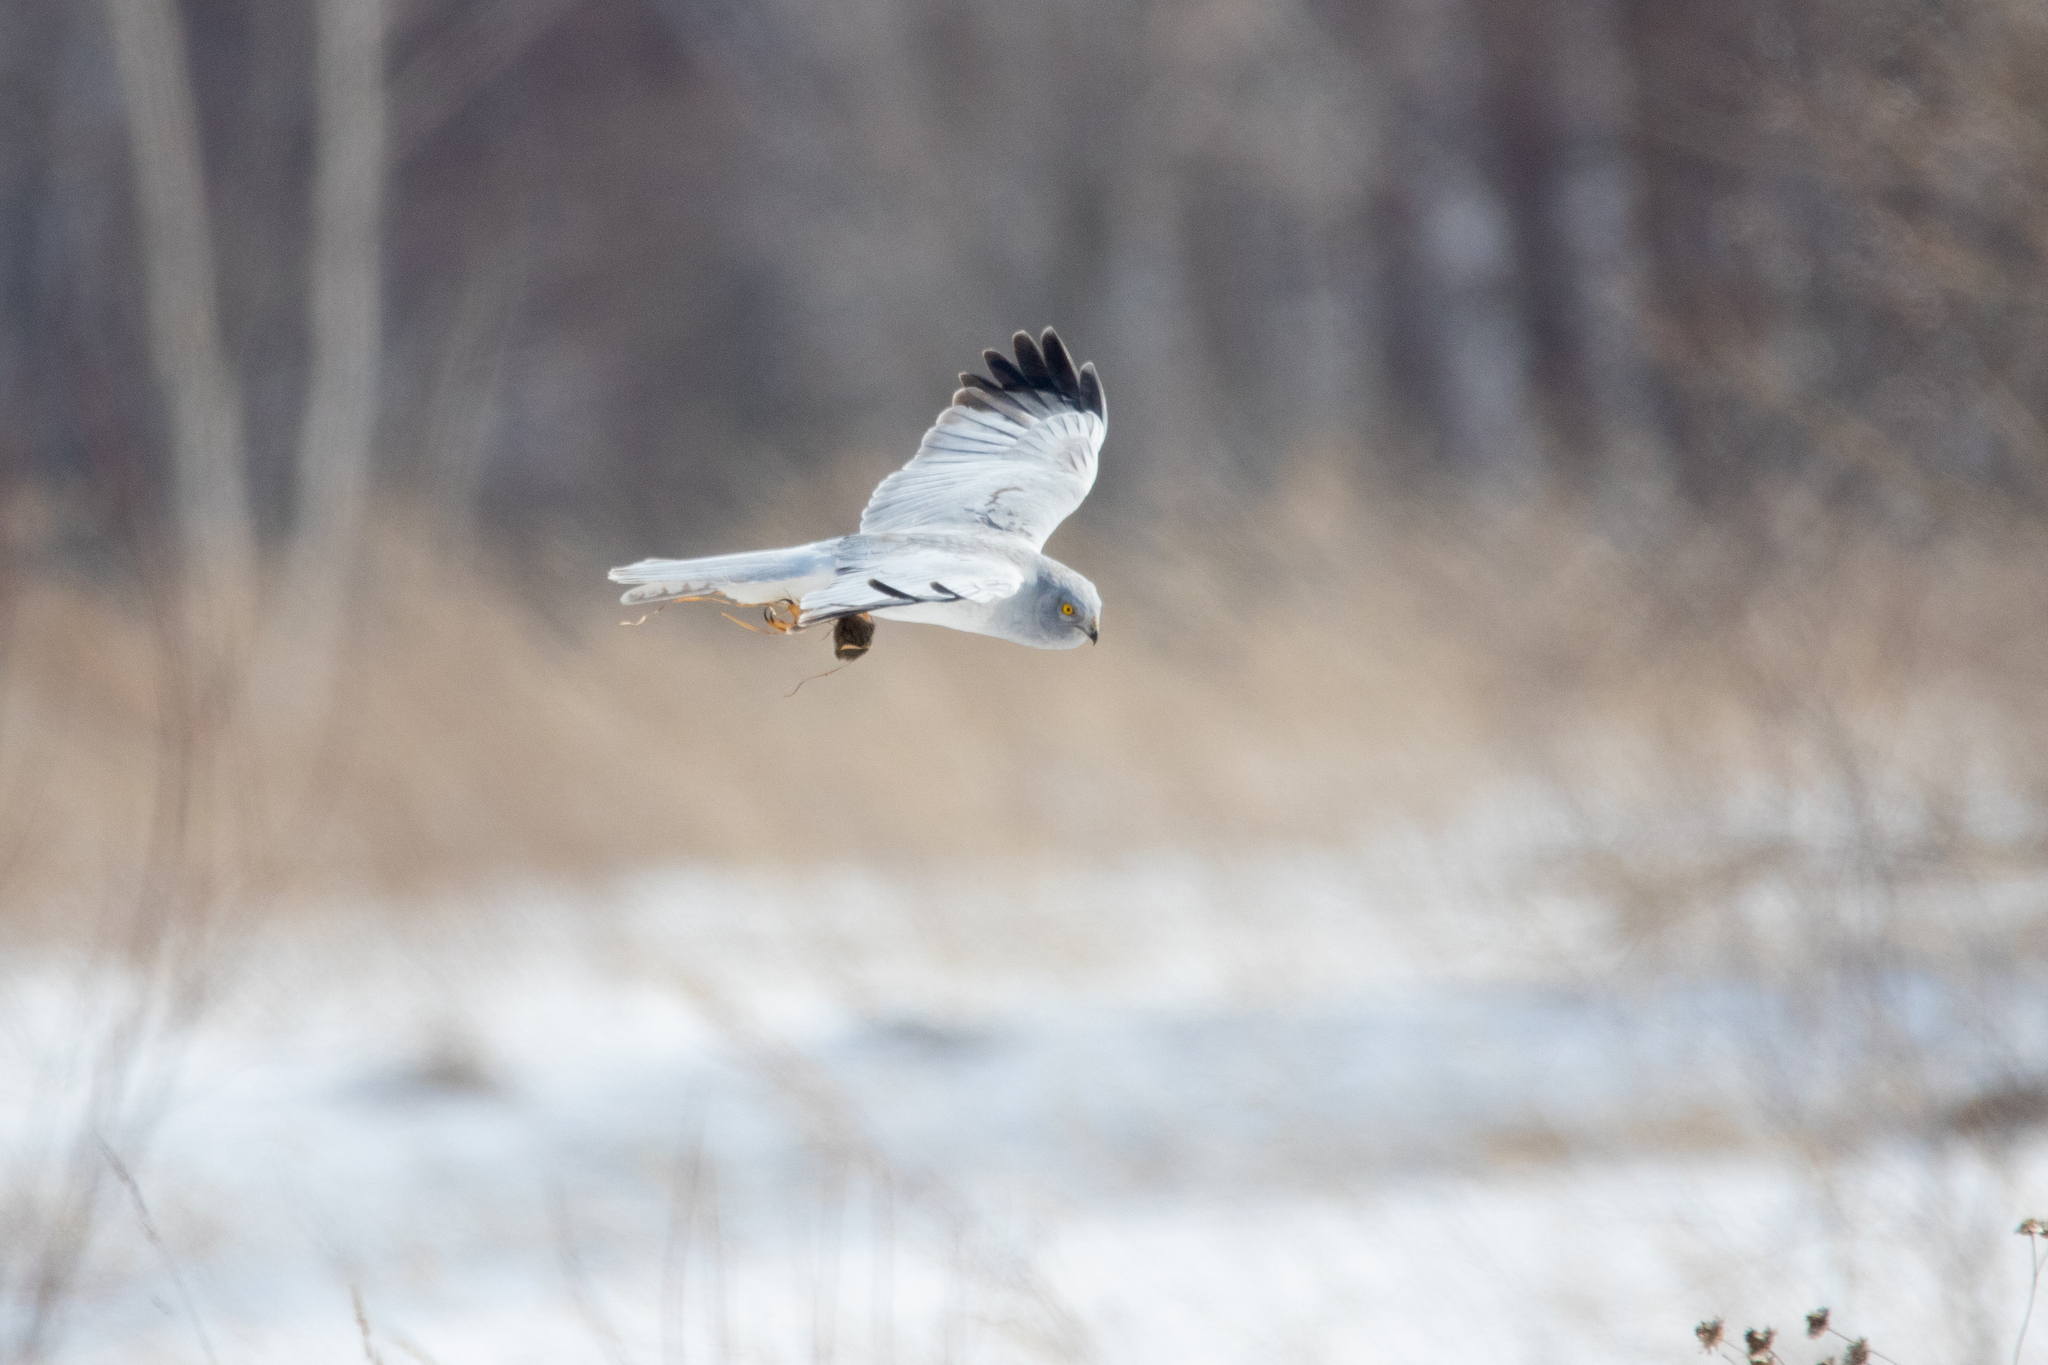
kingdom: Animalia
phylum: Chordata
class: Aves
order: Accipitriformes
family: Accipitridae
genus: Circus
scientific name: Circus cyaneus
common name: Hen harrier
